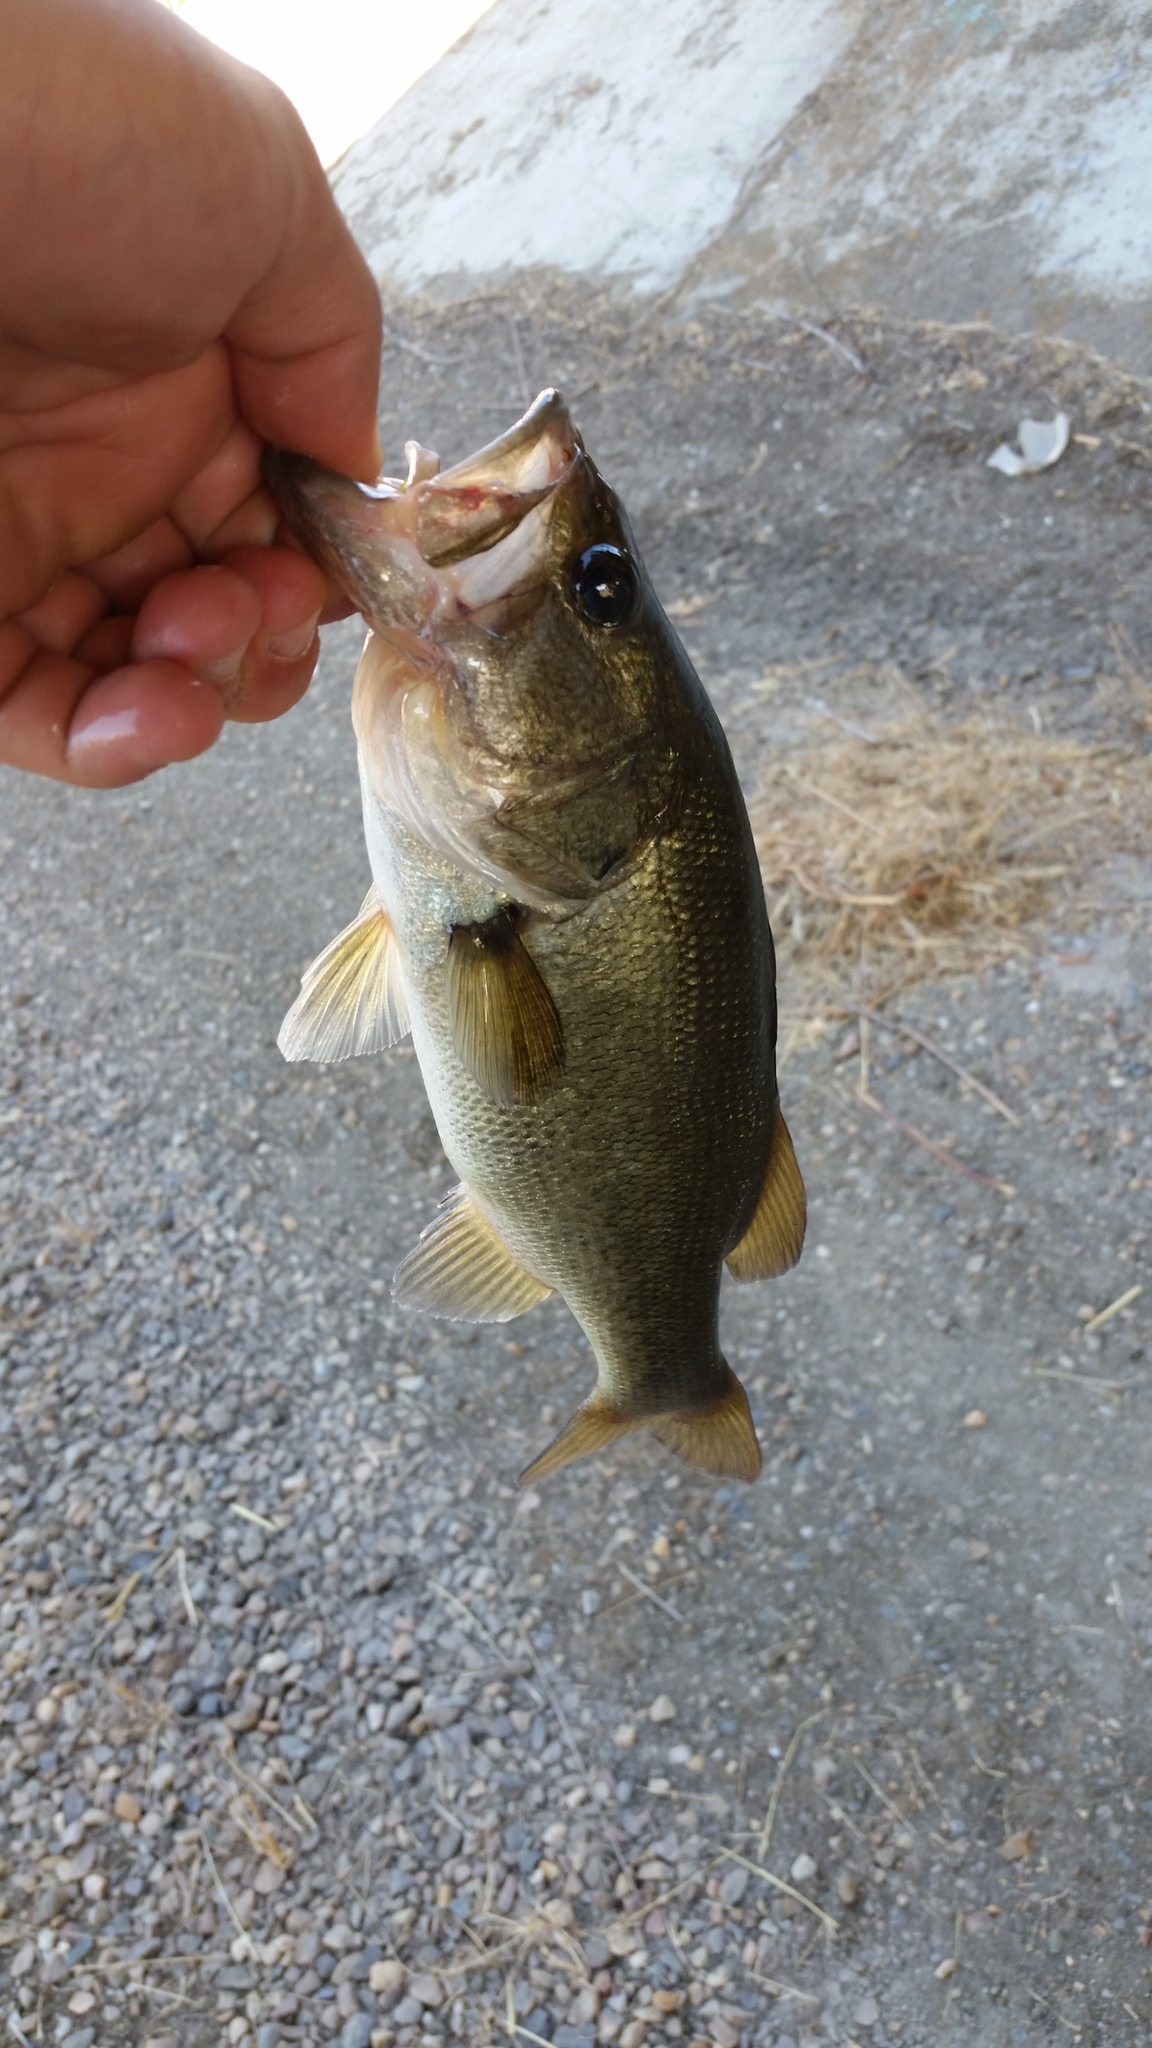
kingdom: Animalia
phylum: Chordata
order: Perciformes
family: Centrarchidae
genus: Micropterus
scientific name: Micropterus
